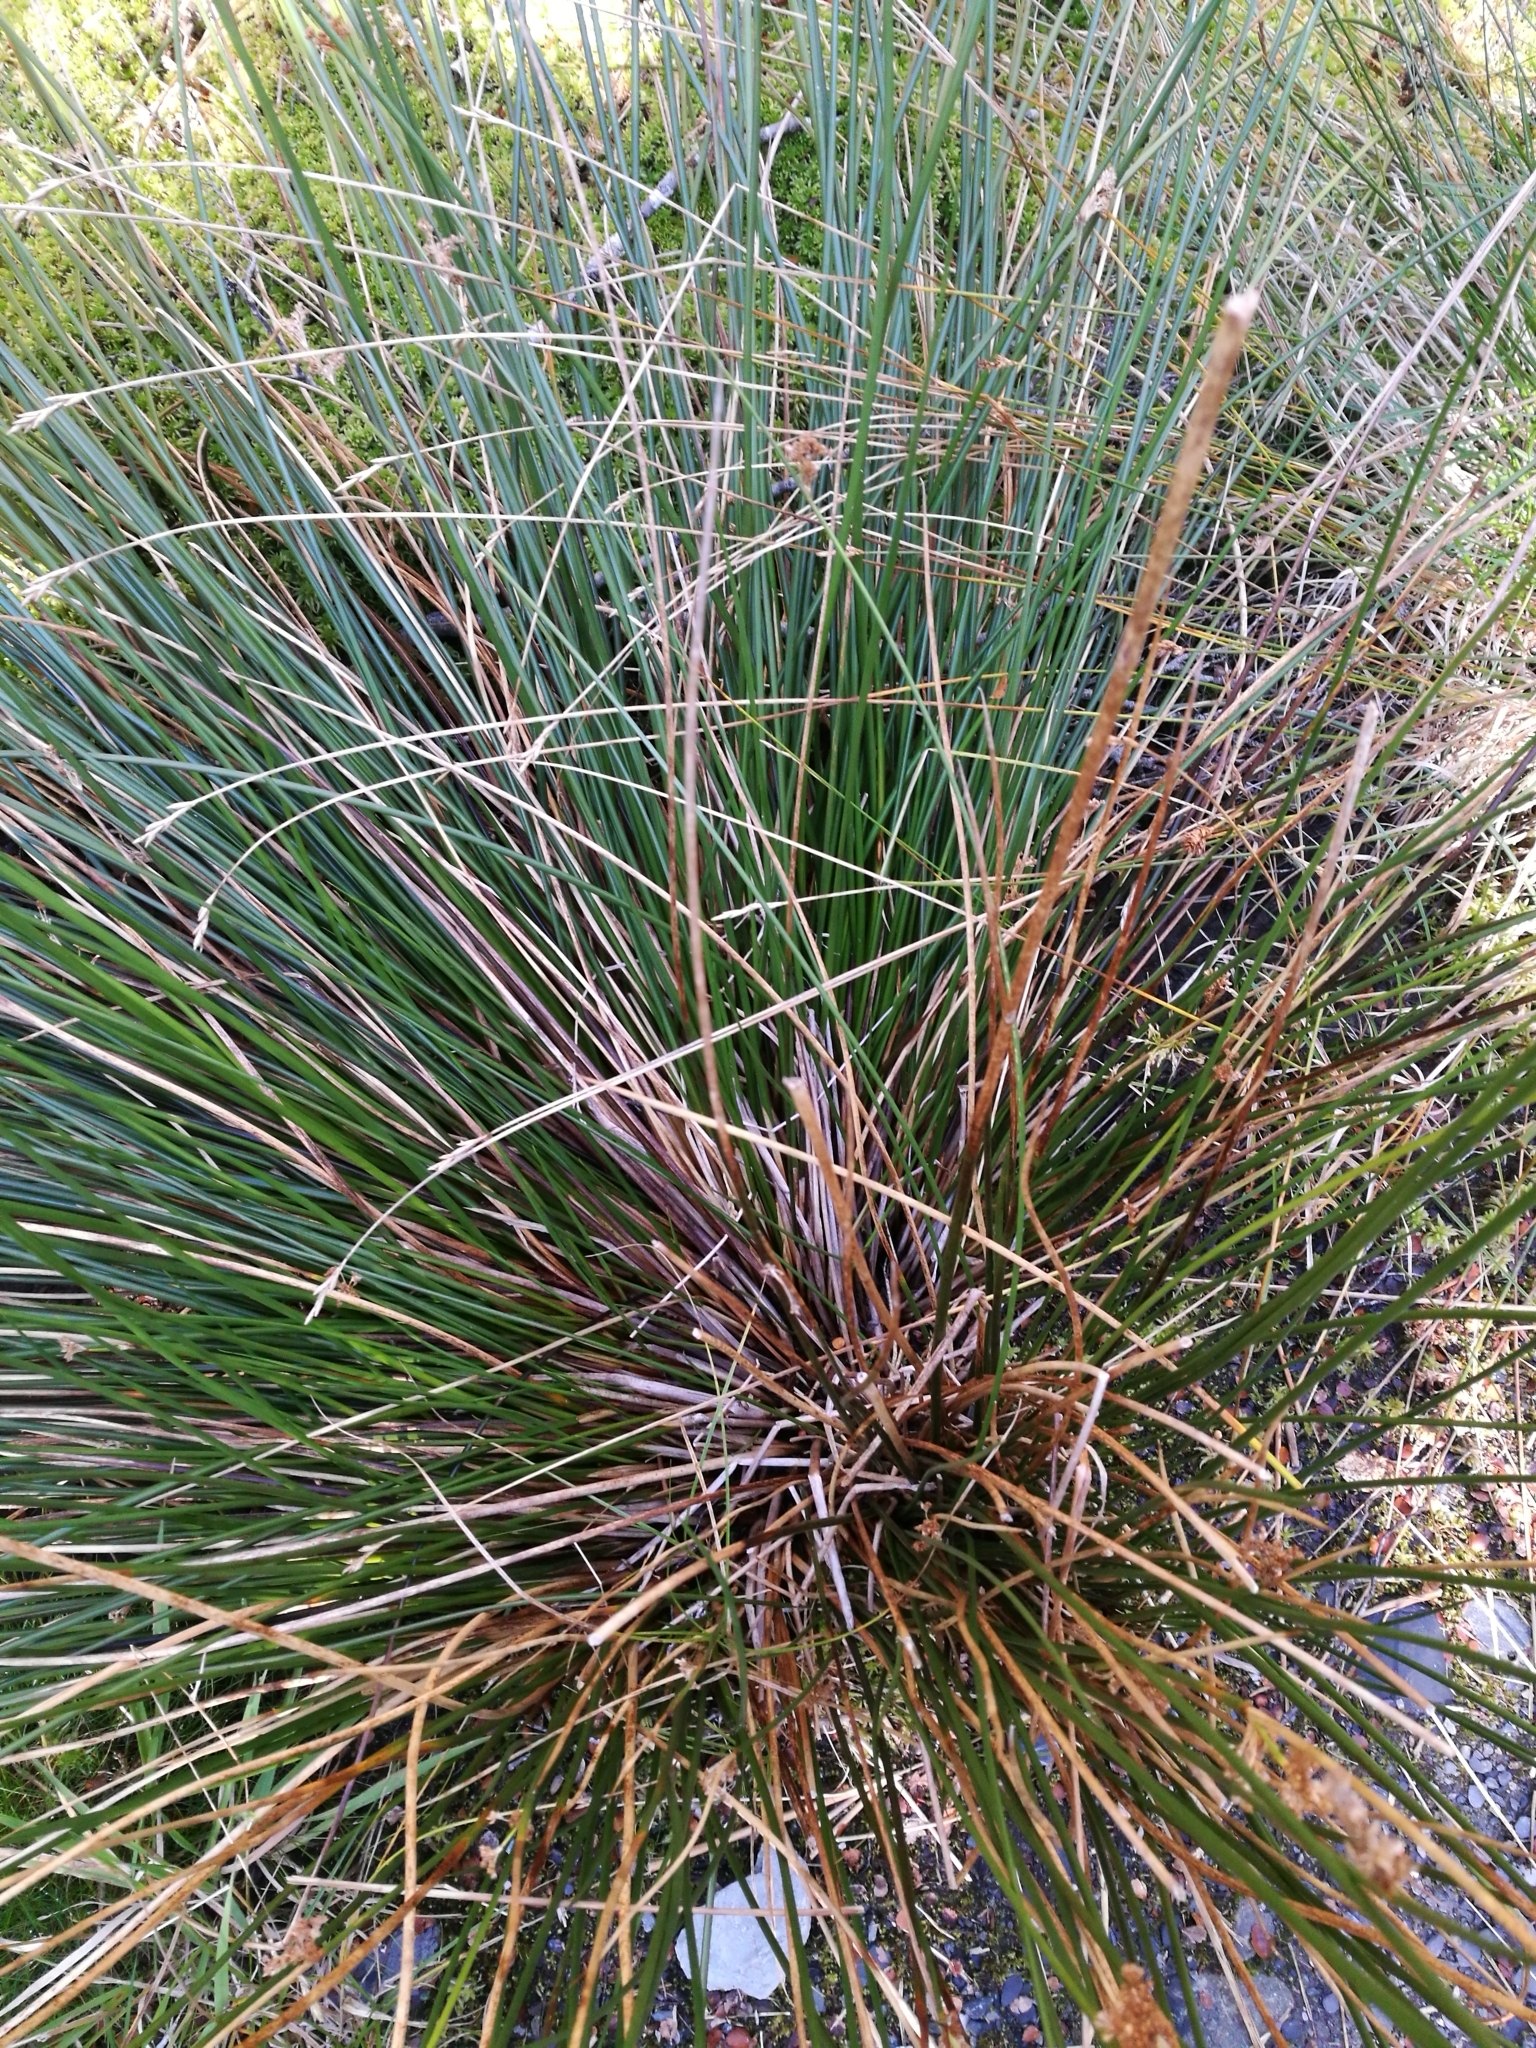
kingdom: Plantae
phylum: Tracheophyta
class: Liliopsida
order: Poales
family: Juncaceae
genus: Juncus
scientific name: Juncus
